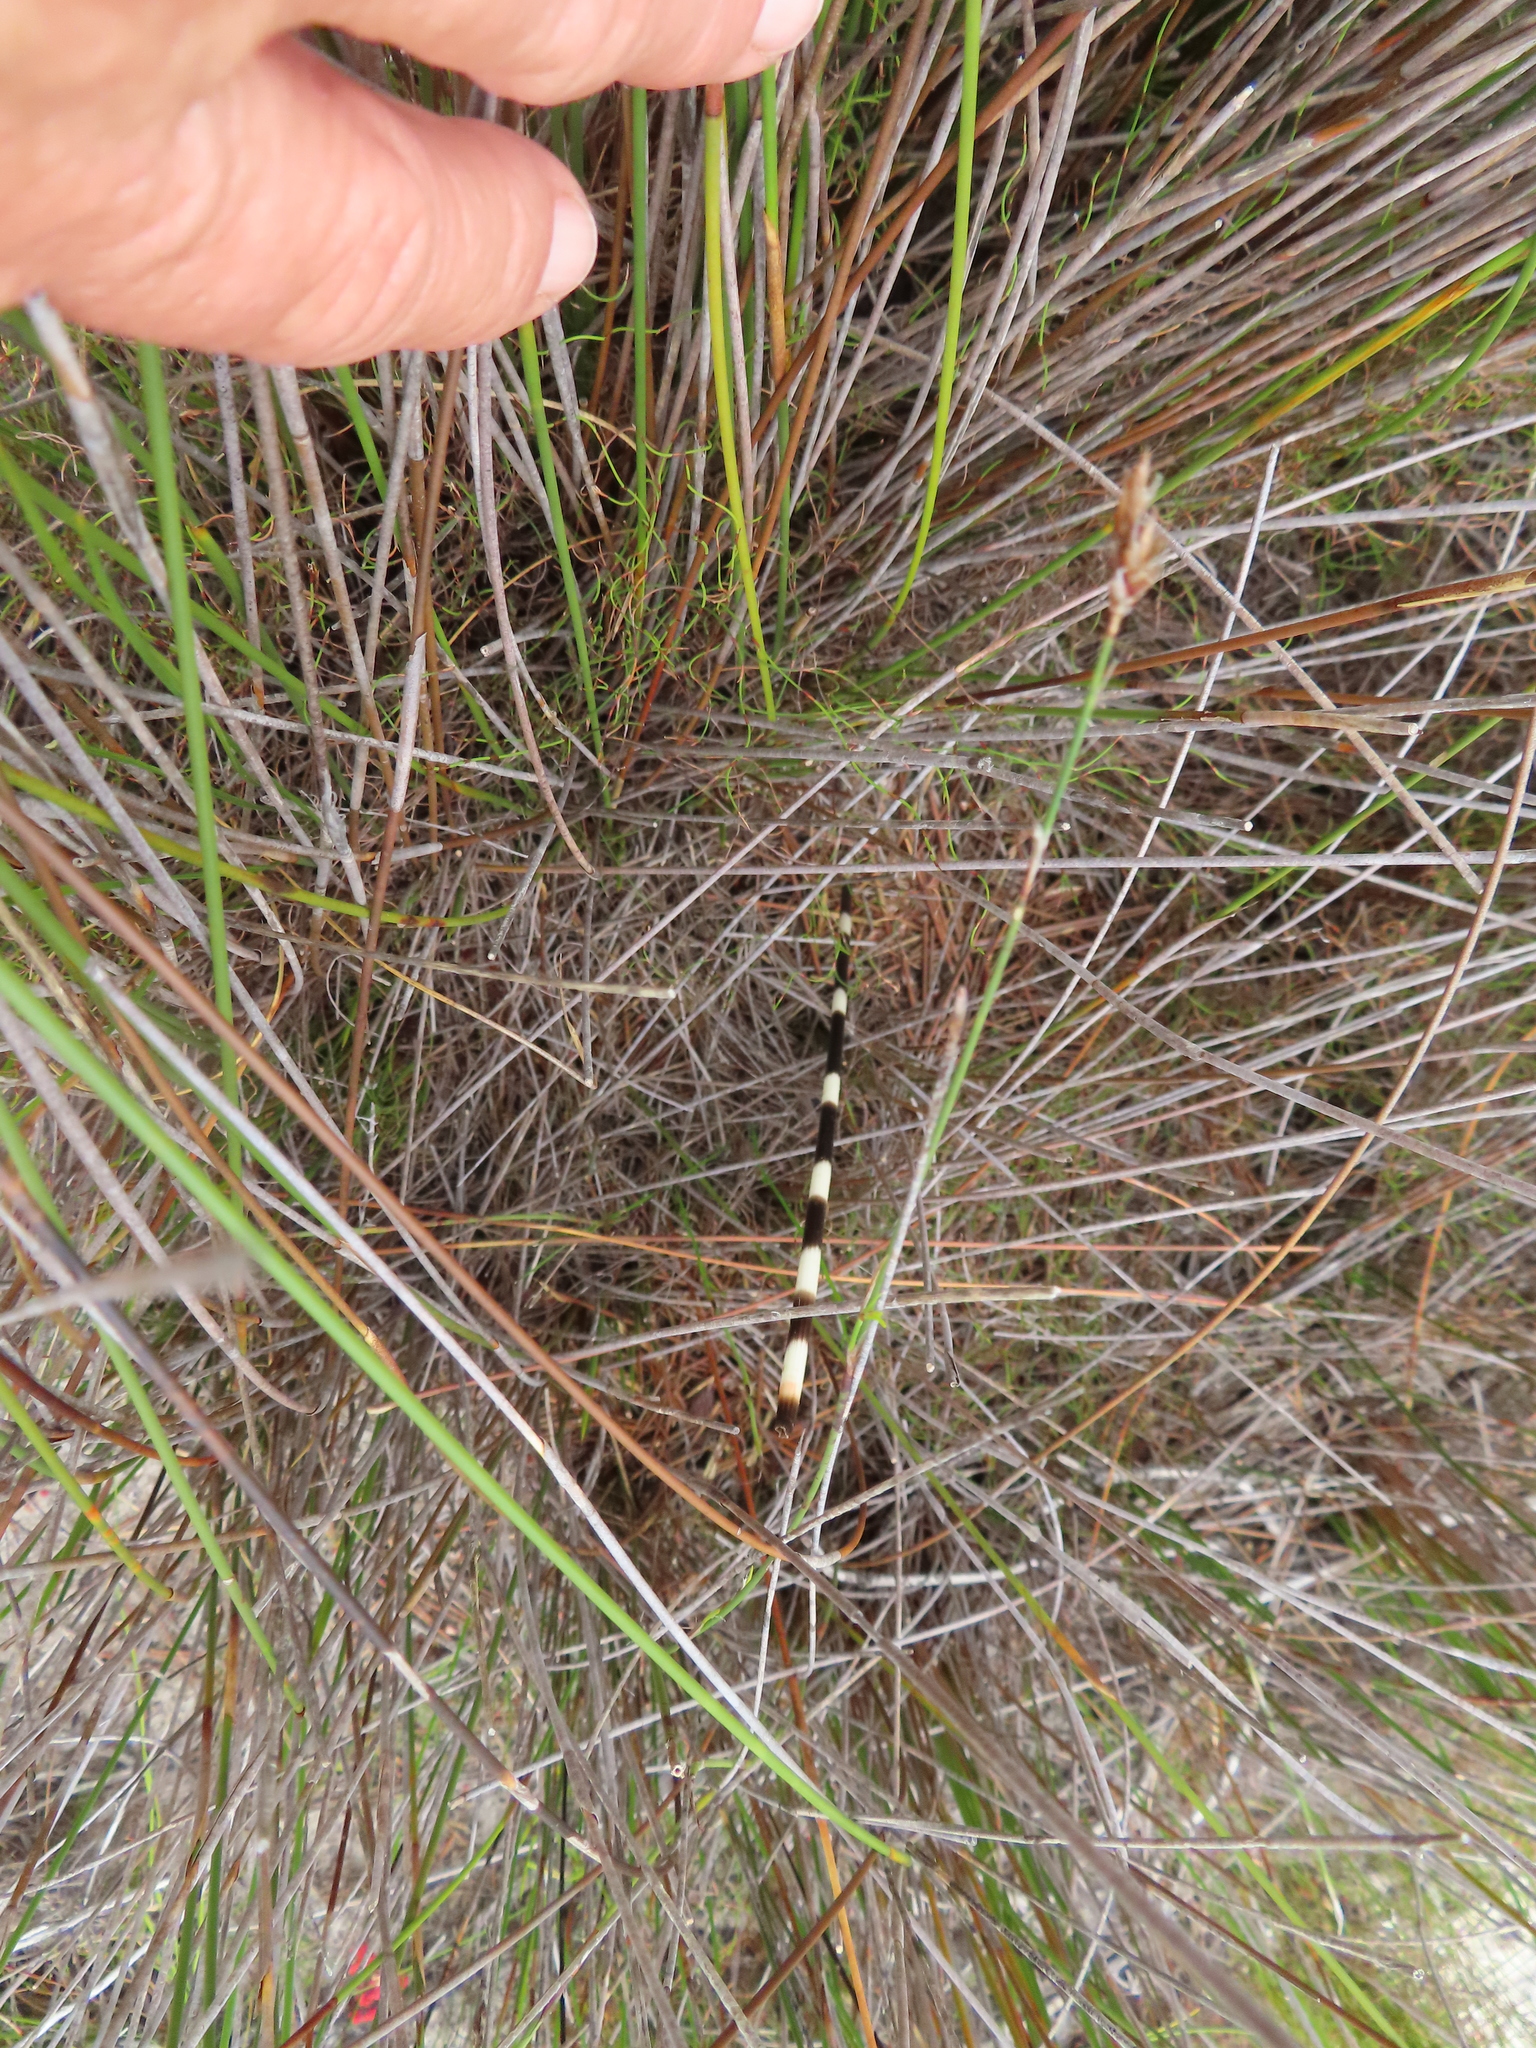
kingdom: Animalia
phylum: Chordata
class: Mammalia
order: Rodentia
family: Hystricidae
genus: Hystrix
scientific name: Hystrix africaeaustralis
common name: Cape porcupine
